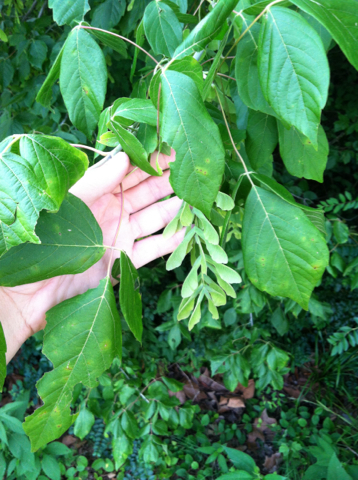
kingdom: Plantae
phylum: Tracheophyta
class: Magnoliopsida
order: Sapindales
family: Sapindaceae
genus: Acer
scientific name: Acer negundo
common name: Ashleaf maple
